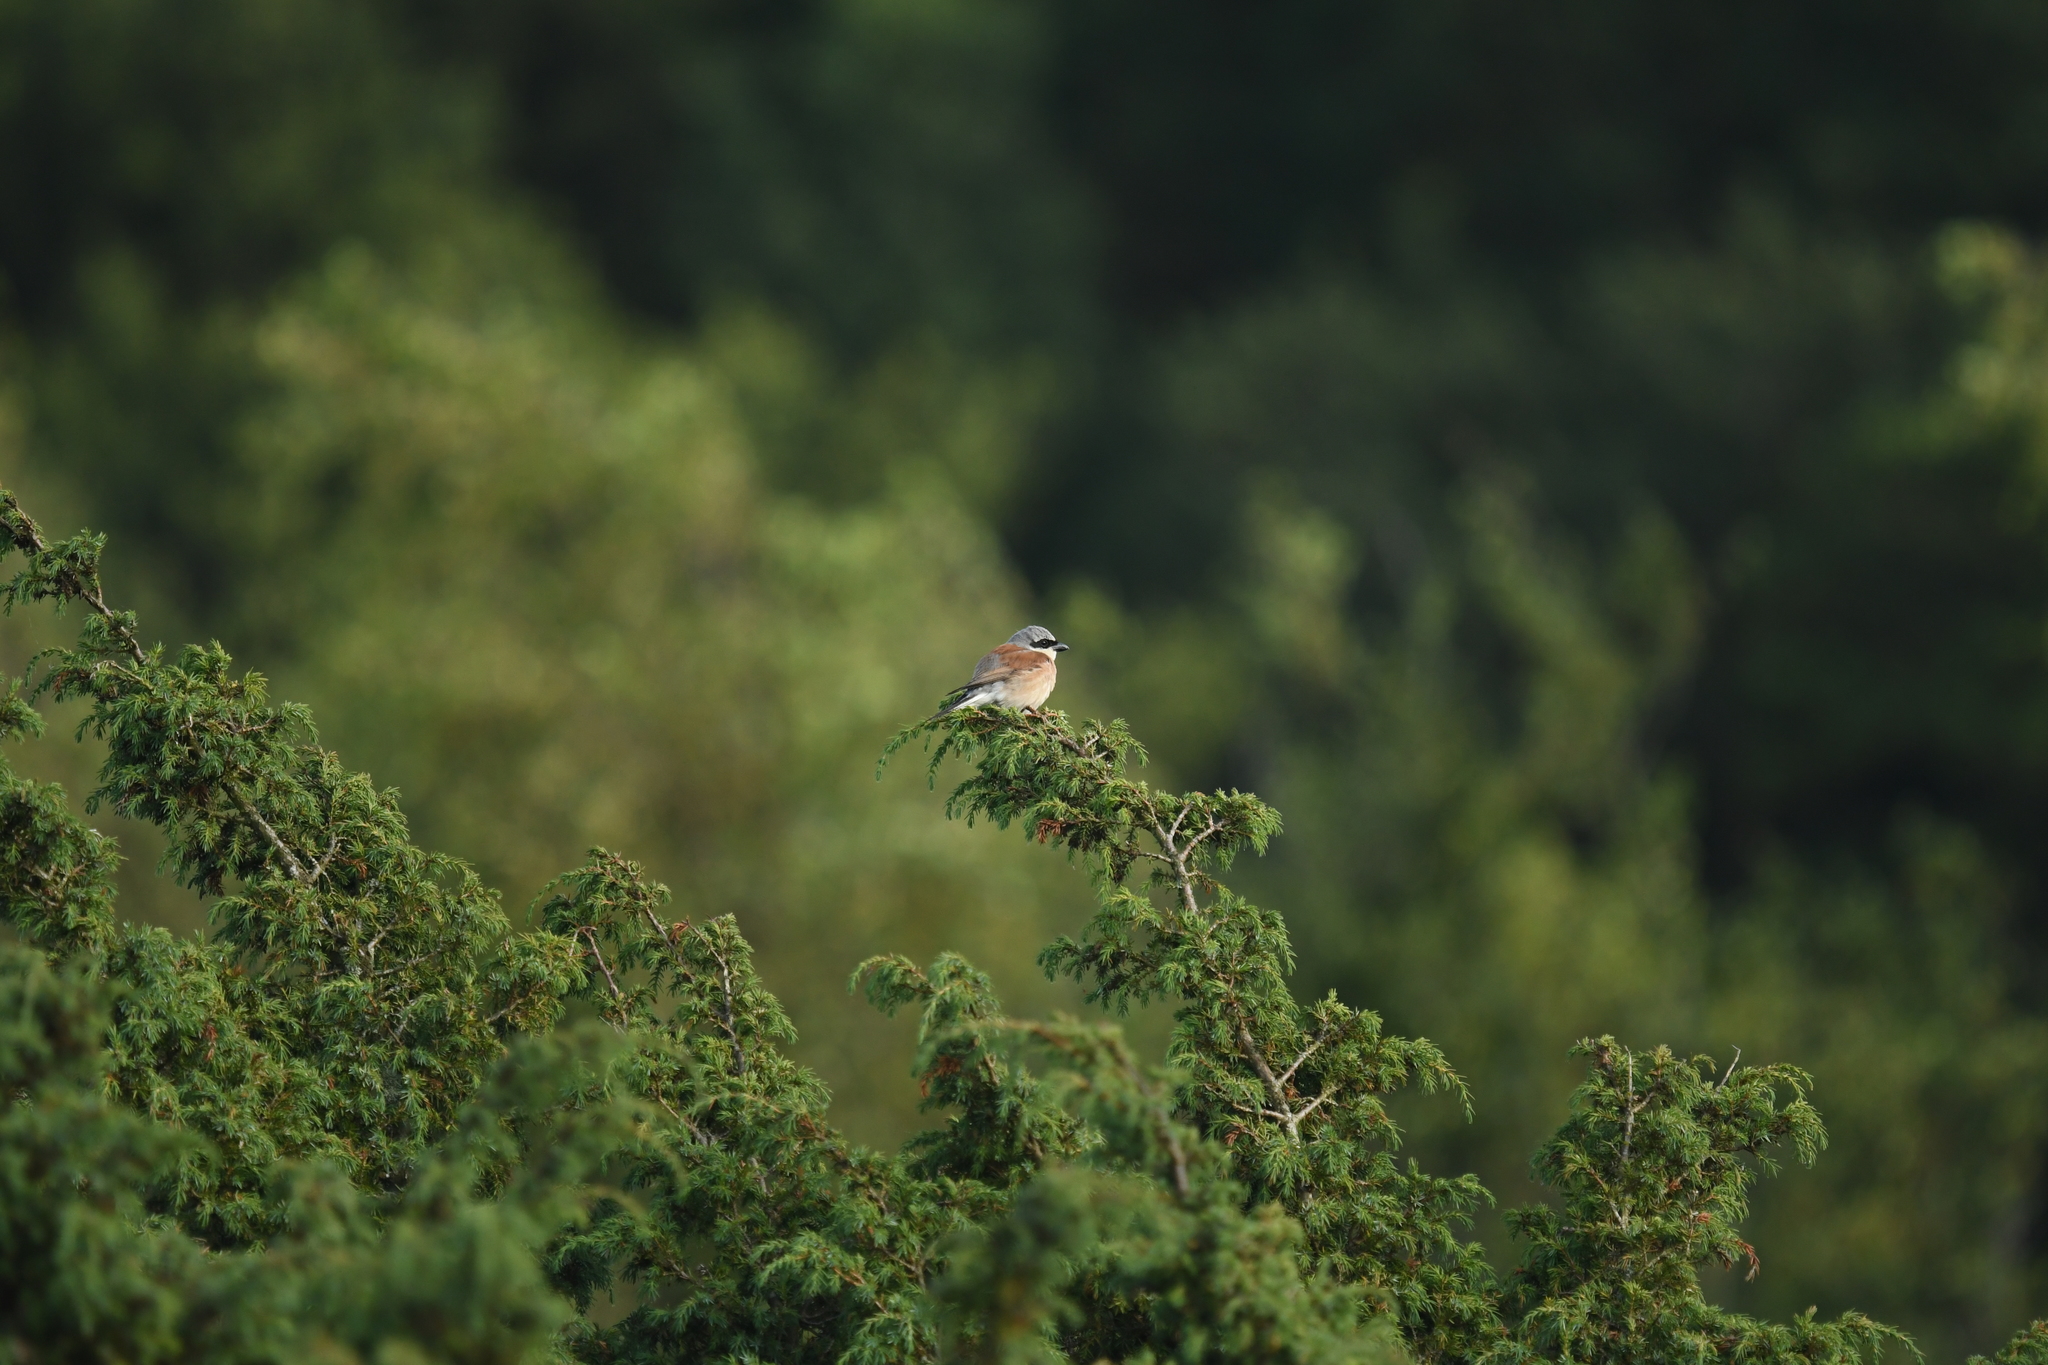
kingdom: Animalia
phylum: Chordata
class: Aves
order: Passeriformes
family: Laniidae
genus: Lanius
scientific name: Lanius collurio
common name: Red-backed shrike
